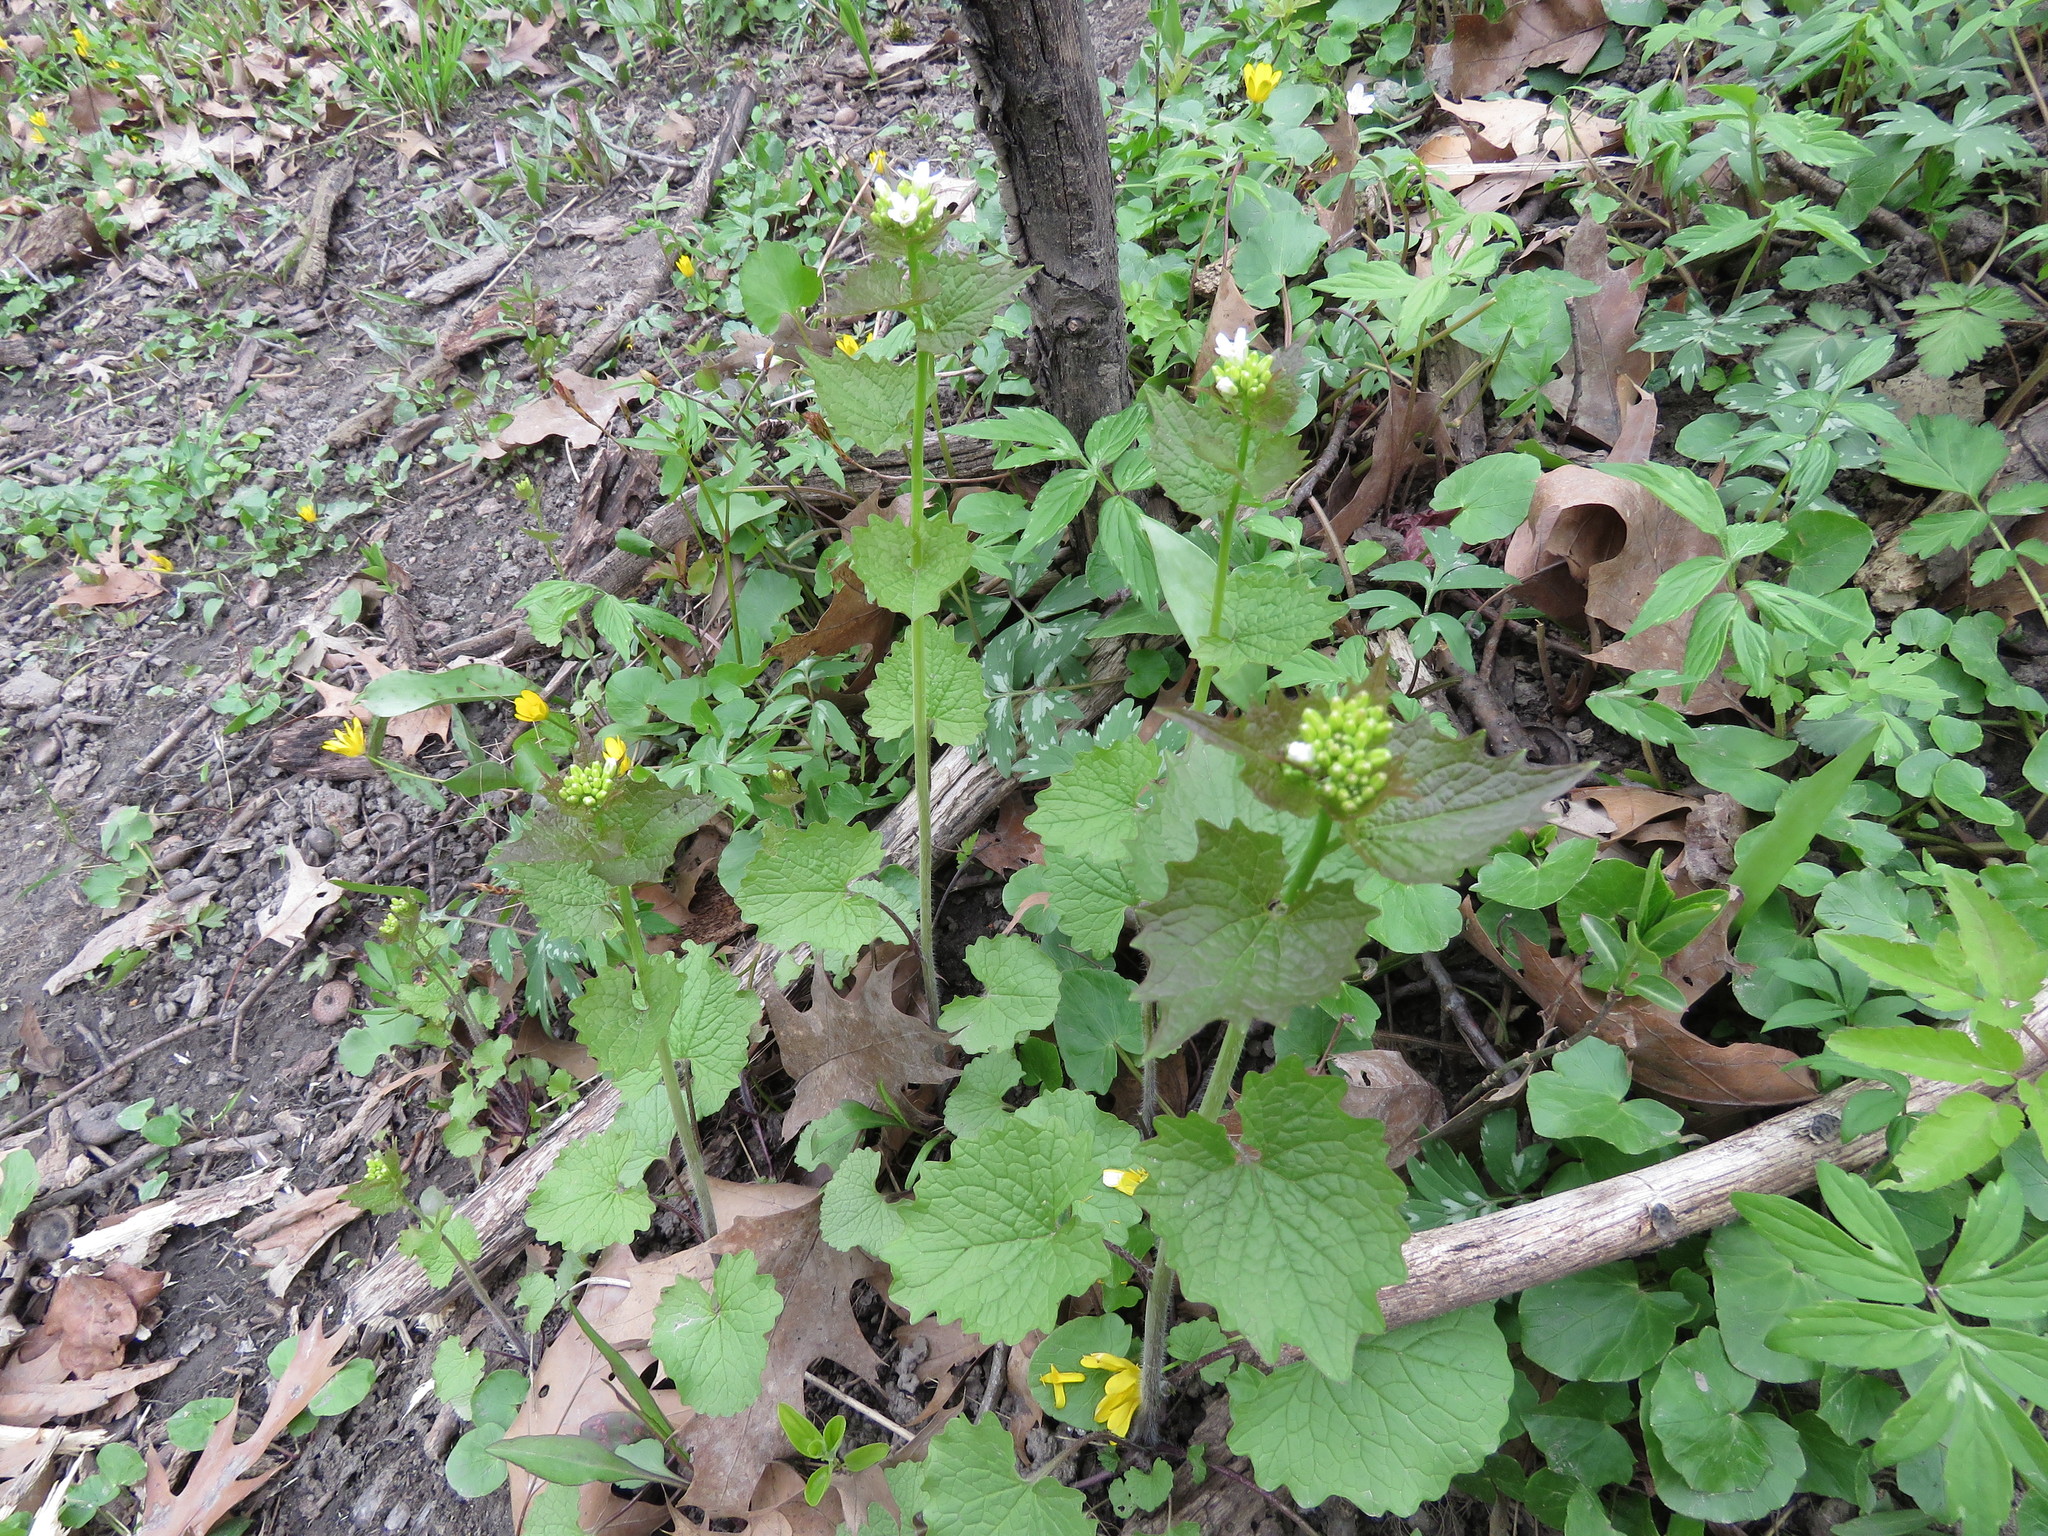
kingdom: Plantae
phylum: Tracheophyta
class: Magnoliopsida
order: Brassicales
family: Brassicaceae
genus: Alliaria
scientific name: Alliaria petiolata
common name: Garlic mustard
